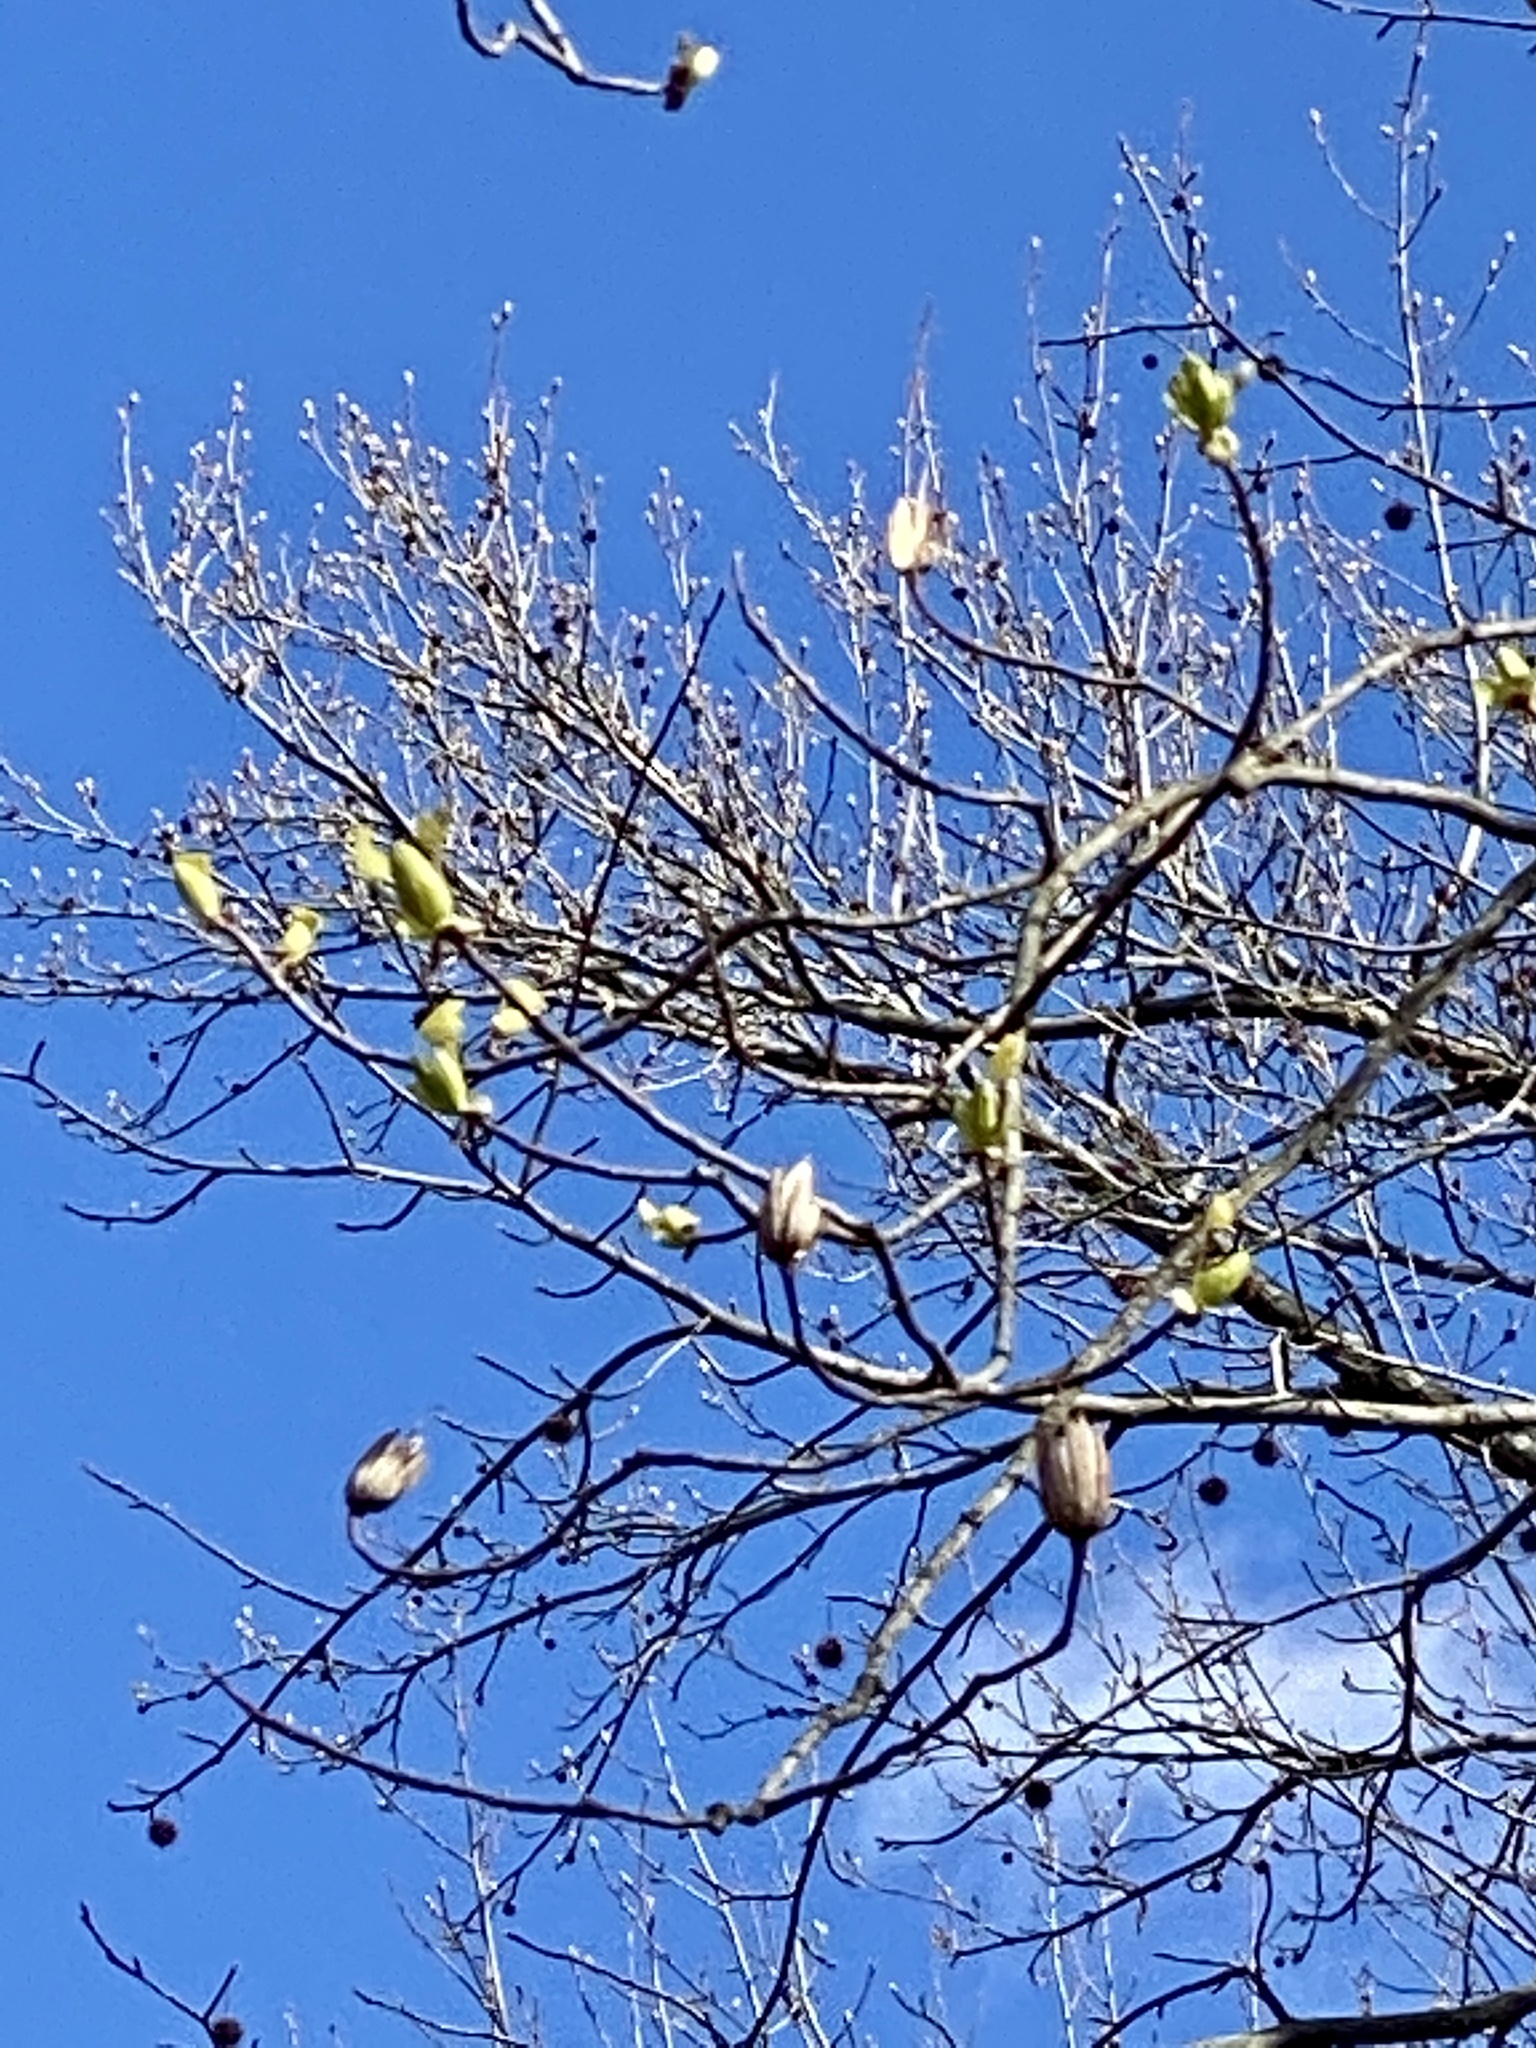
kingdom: Plantae
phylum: Tracheophyta
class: Magnoliopsida
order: Magnoliales
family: Magnoliaceae
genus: Liriodendron
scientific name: Liriodendron tulipifera
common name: Tulip tree
